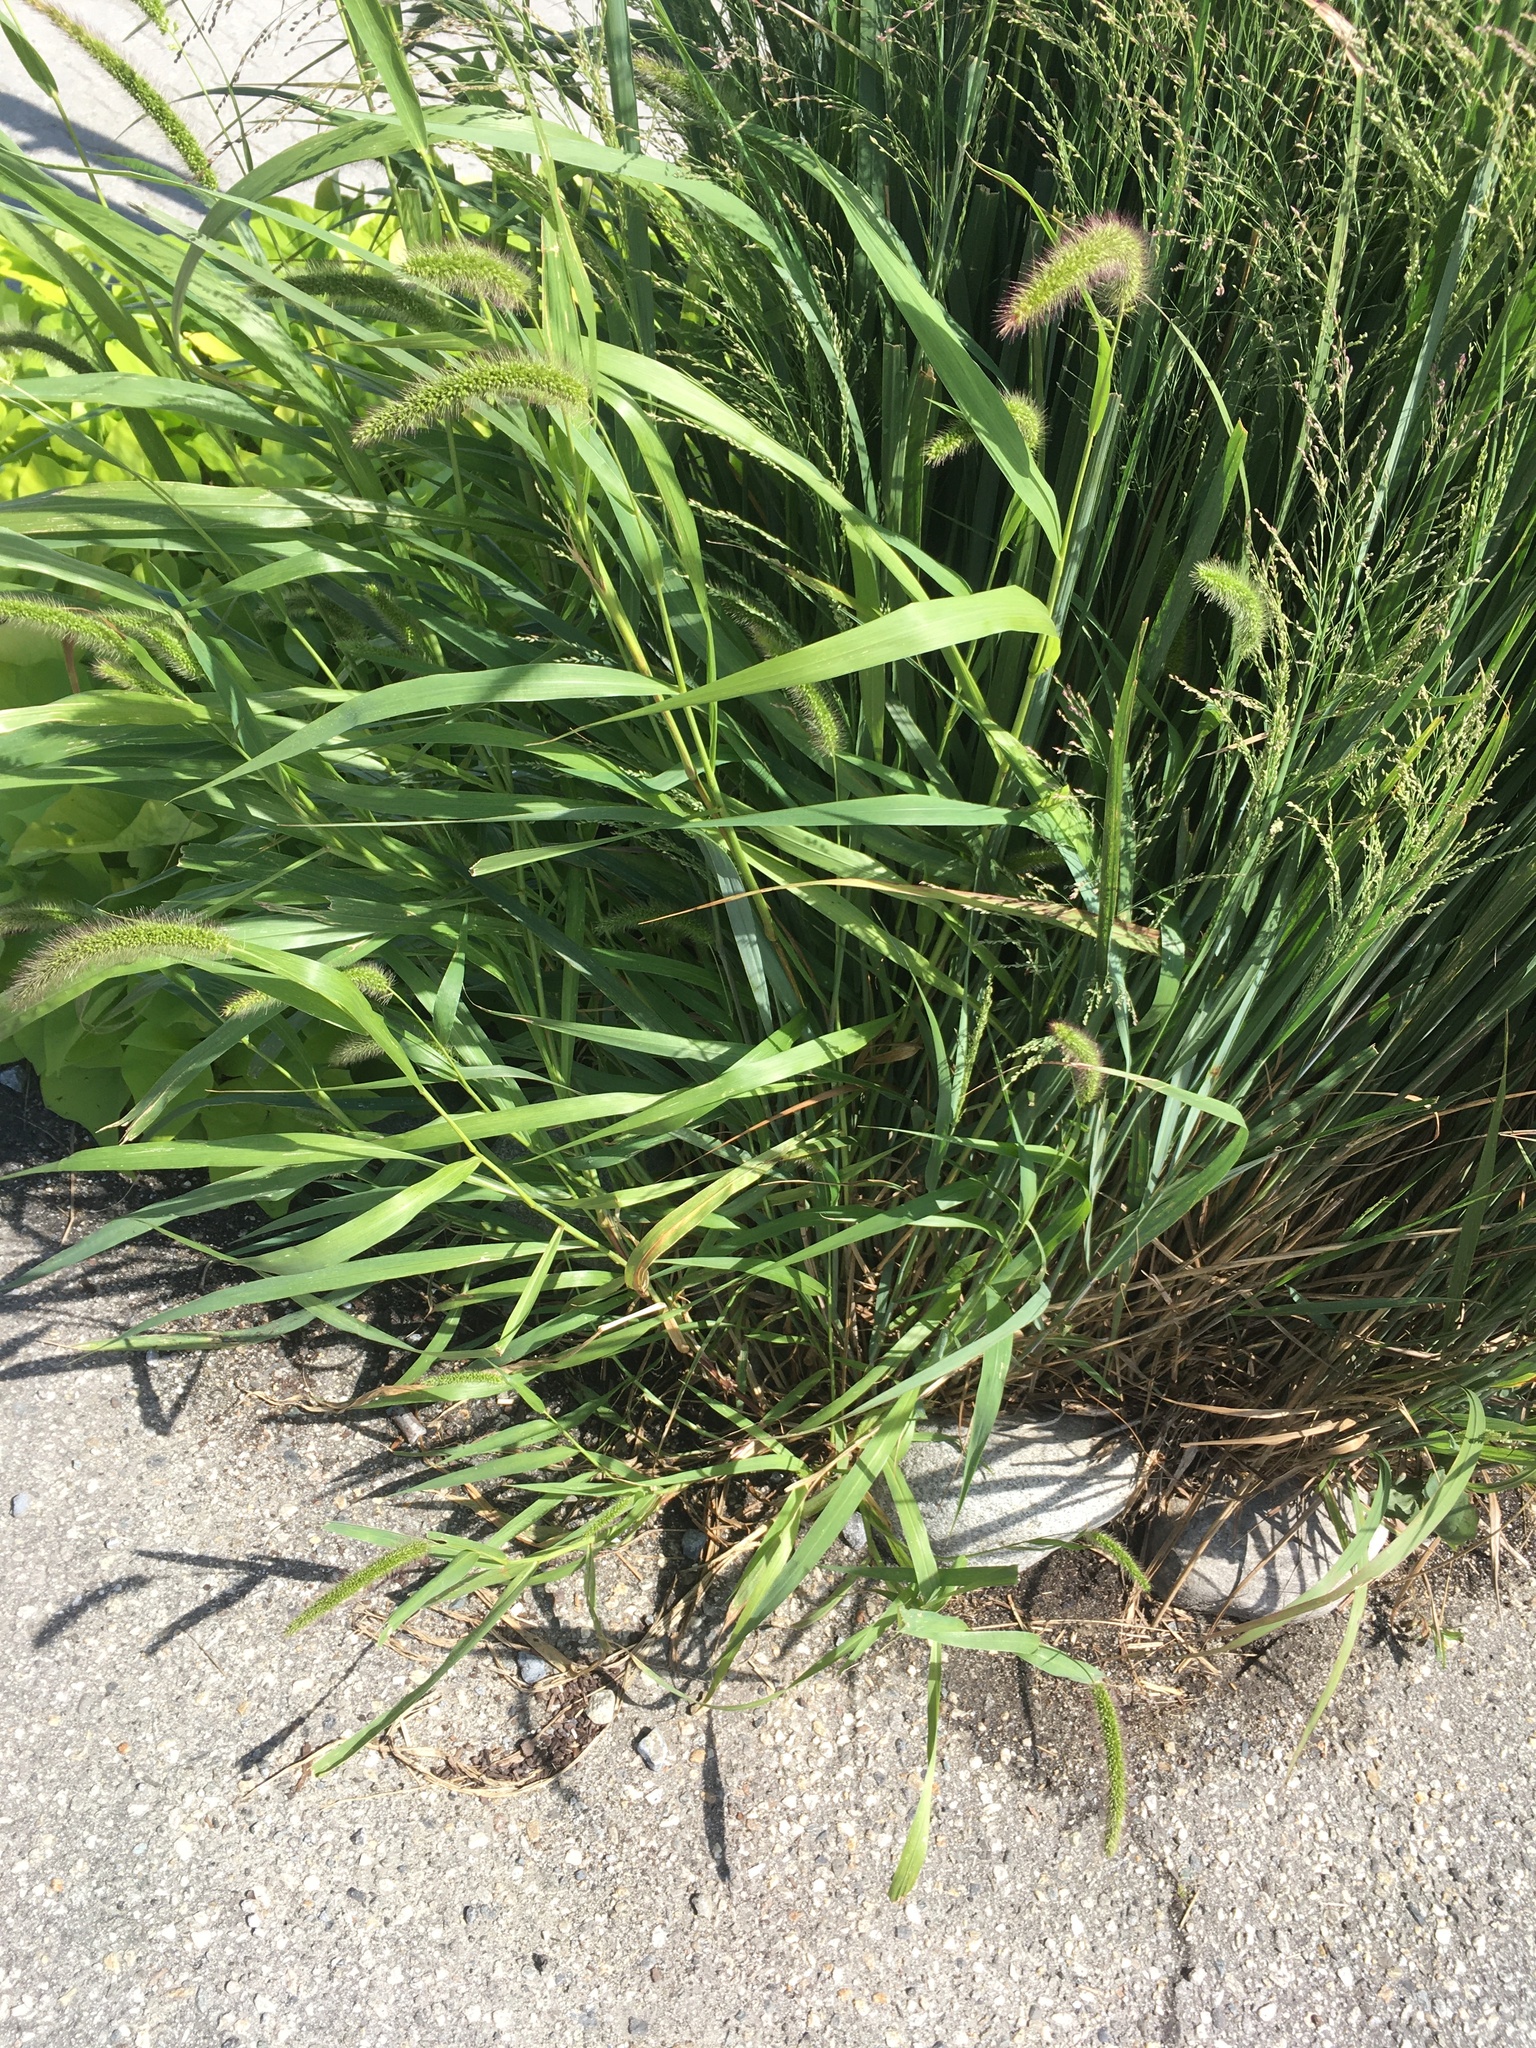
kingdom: Plantae
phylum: Tracheophyta
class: Liliopsida
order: Poales
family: Poaceae
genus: Setaria
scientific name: Setaria faberi
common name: Nodding bristle-grass
